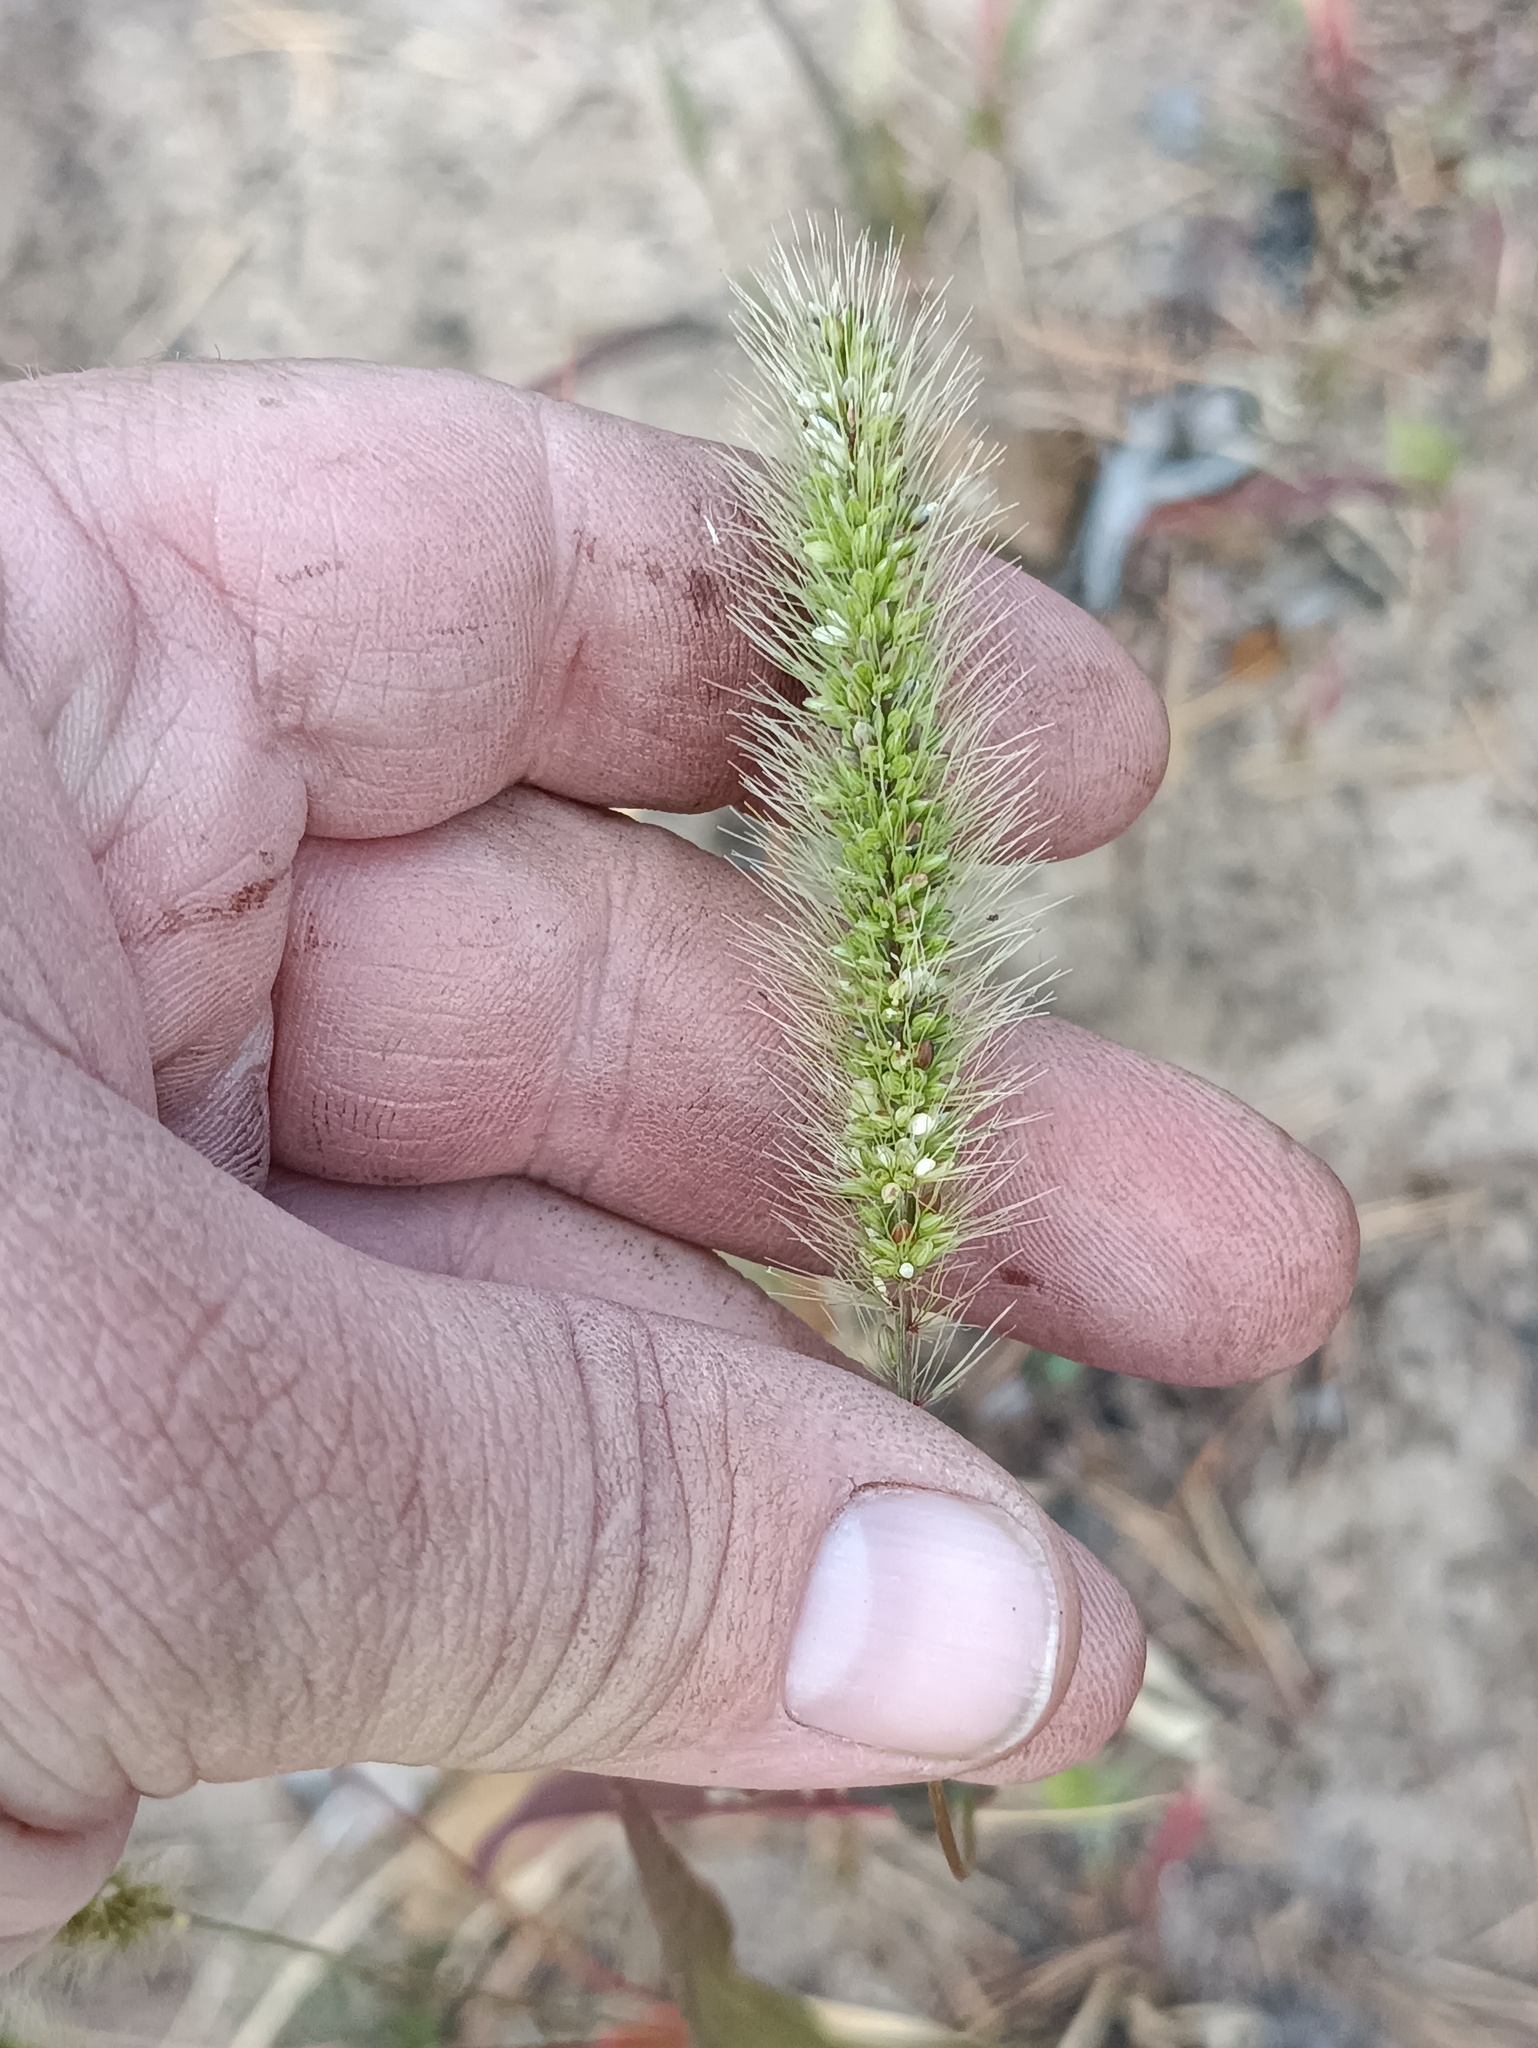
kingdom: Plantae
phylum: Tracheophyta
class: Liliopsida
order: Poales
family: Poaceae
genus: Setaria
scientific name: Setaria viridis
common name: Green bristlegrass
